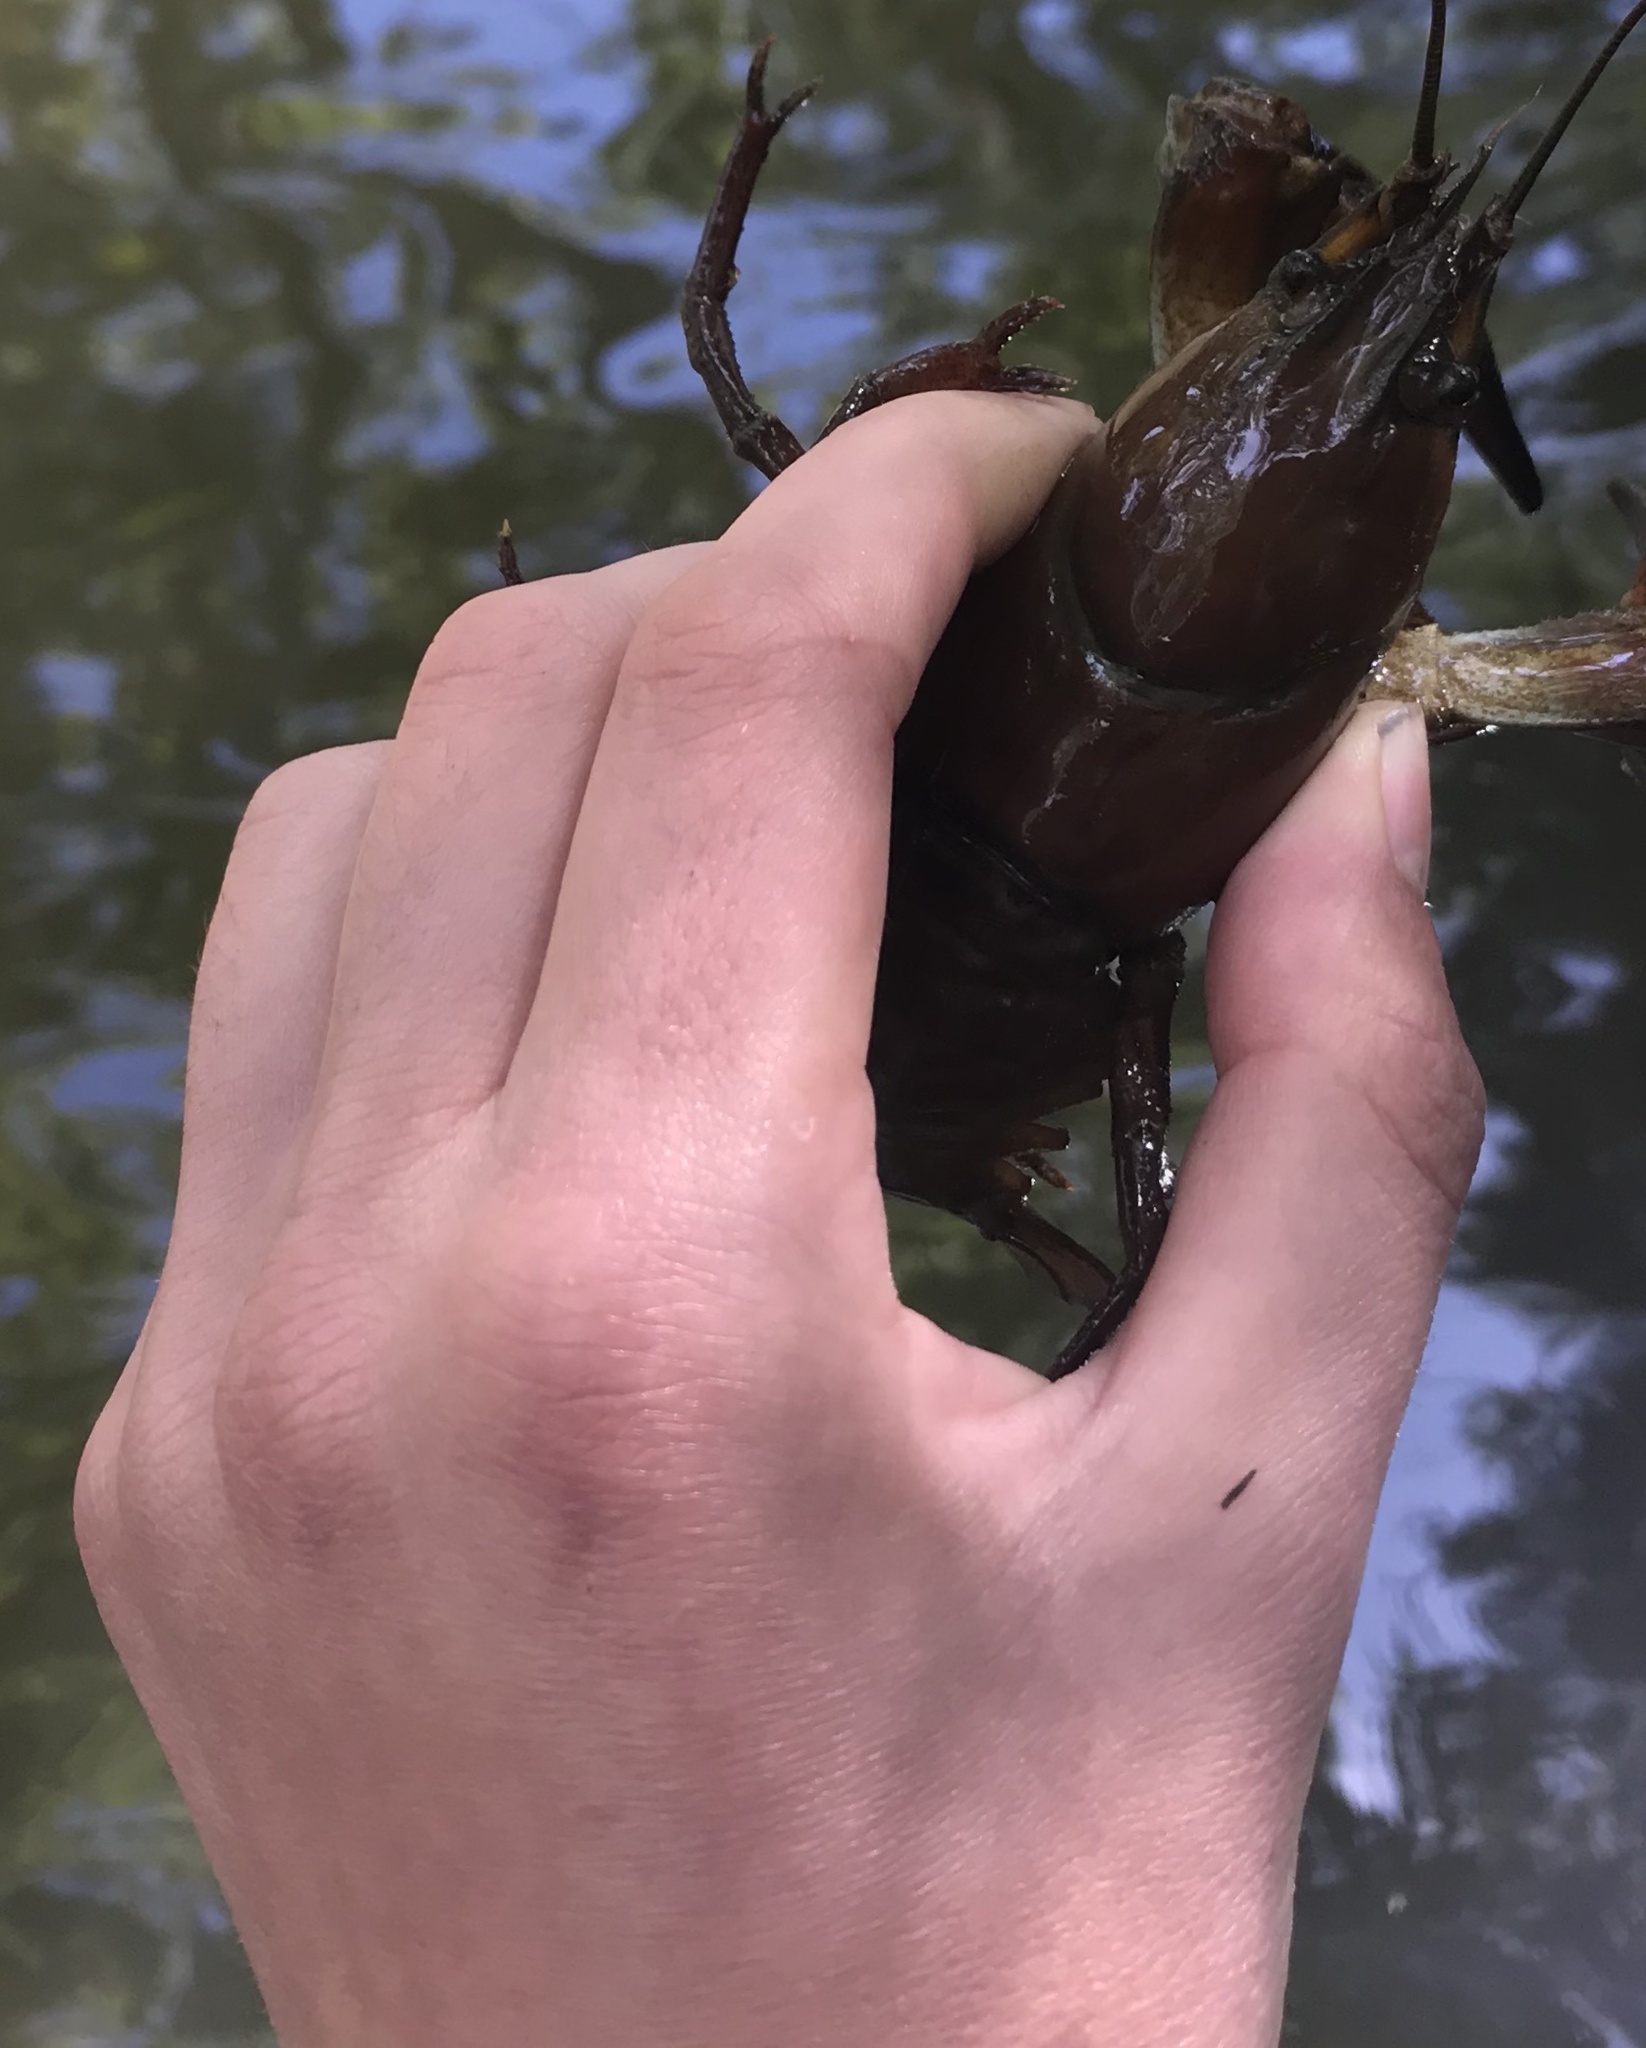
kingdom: Animalia
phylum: Arthropoda
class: Malacostraca
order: Decapoda
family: Astacidae
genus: Pacifastacus
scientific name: Pacifastacus leniusculus
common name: Signal crayfish
